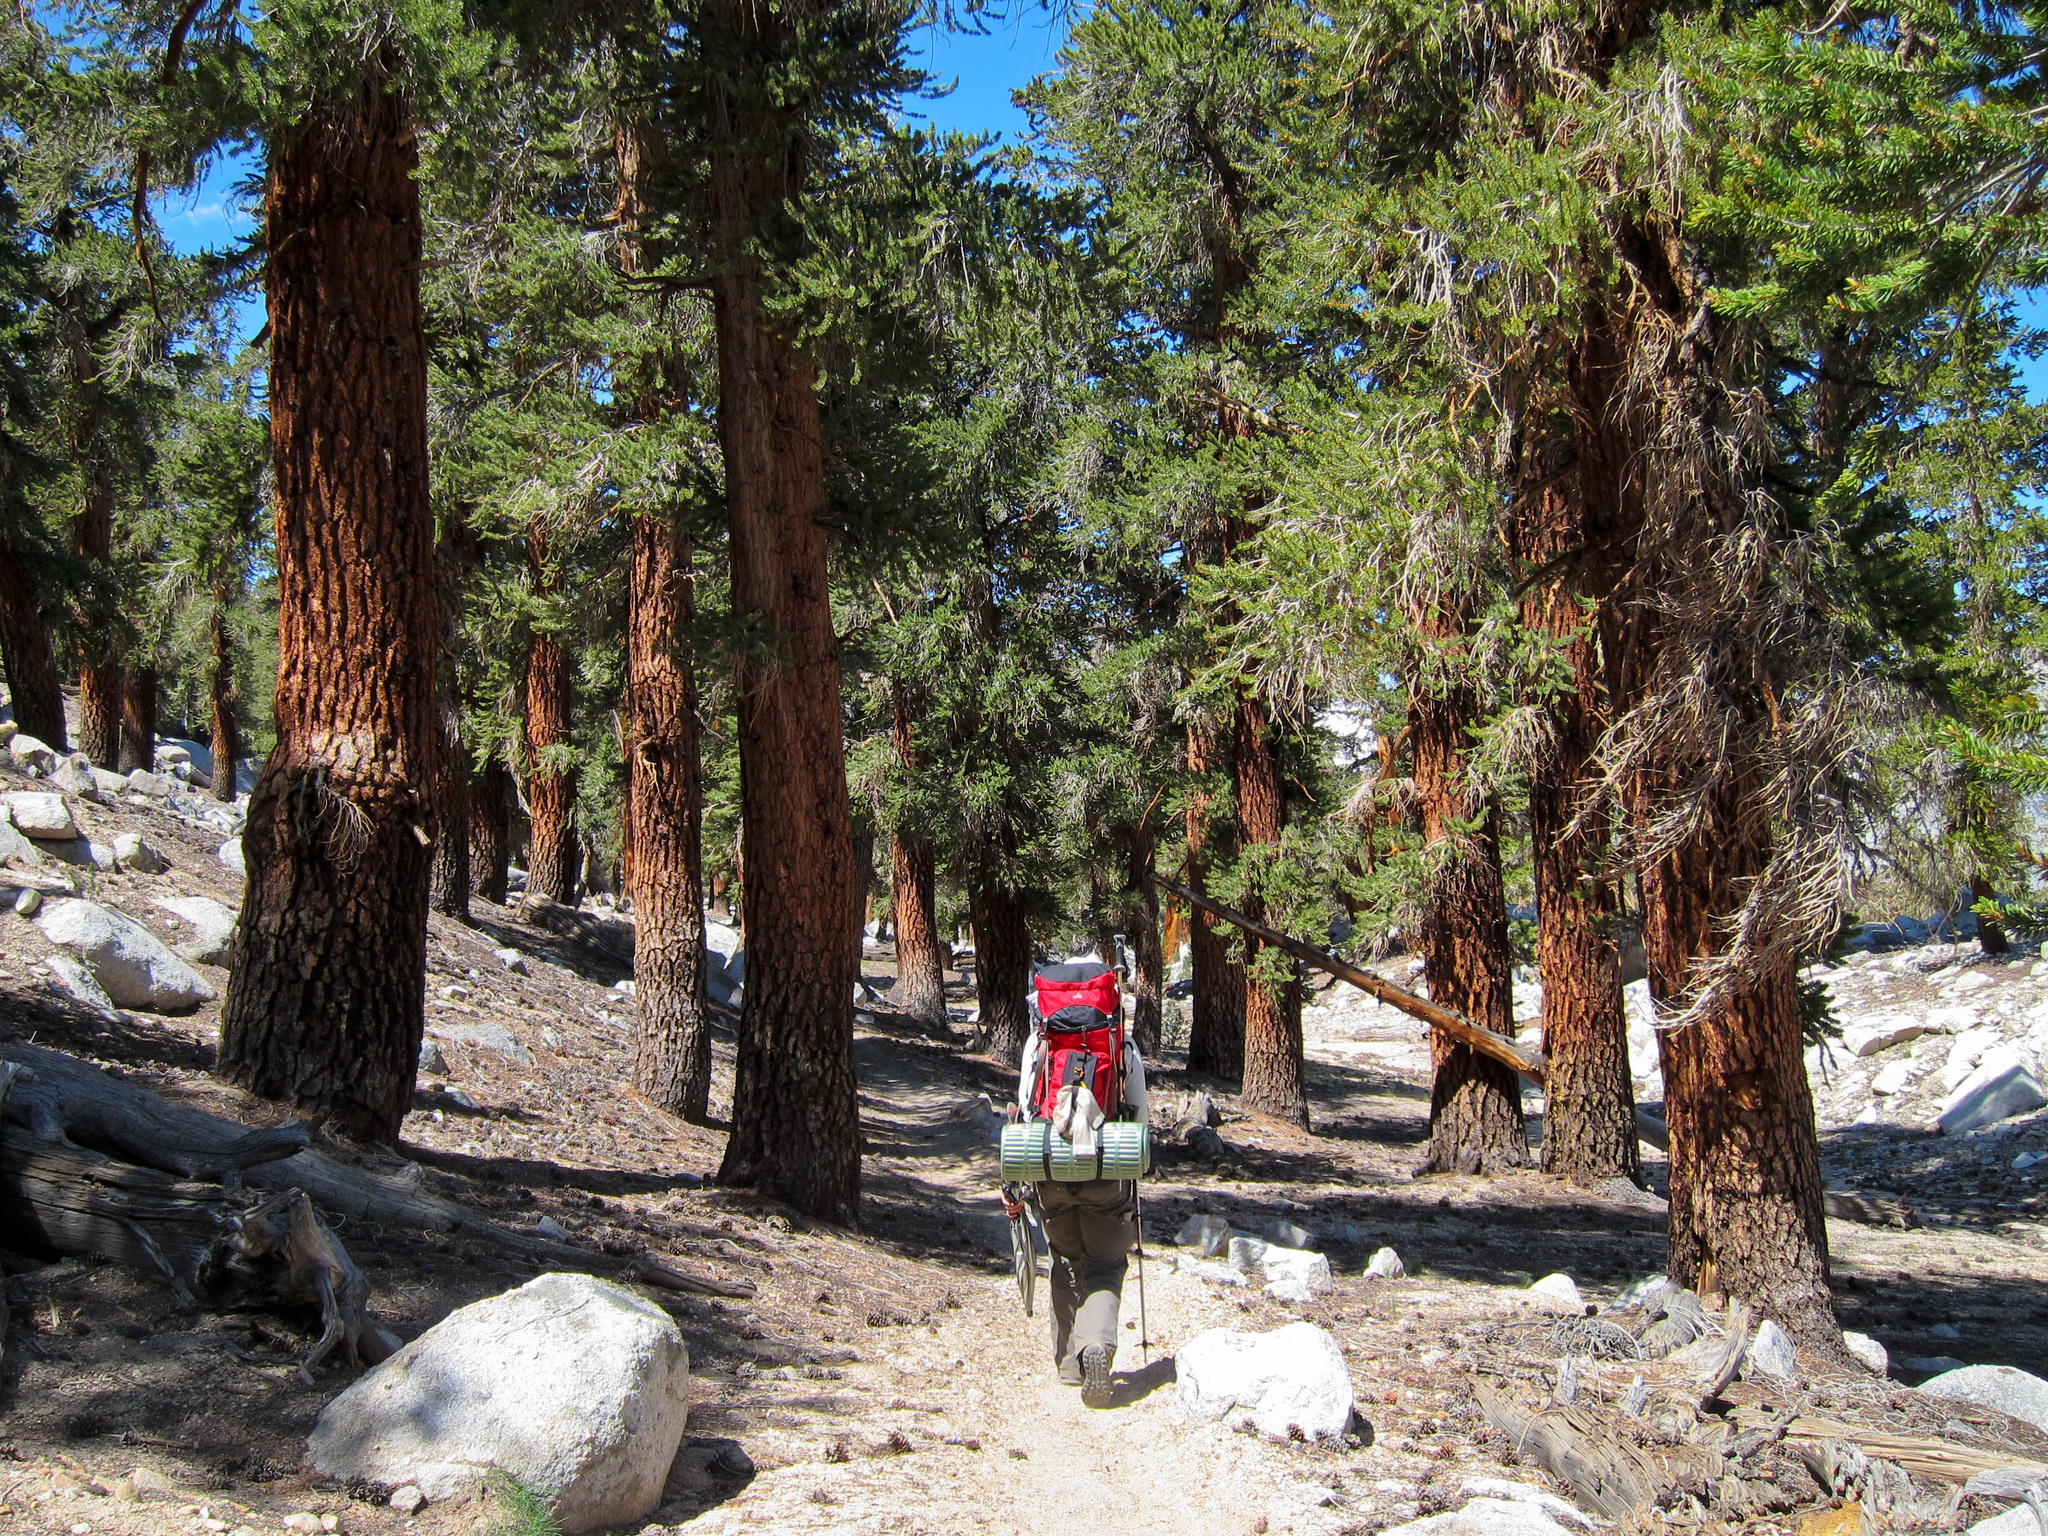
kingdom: Plantae
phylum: Tracheophyta
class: Pinopsida
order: Pinales
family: Pinaceae
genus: Pinus
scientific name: Pinus balfouriana
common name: Foxtail pine
